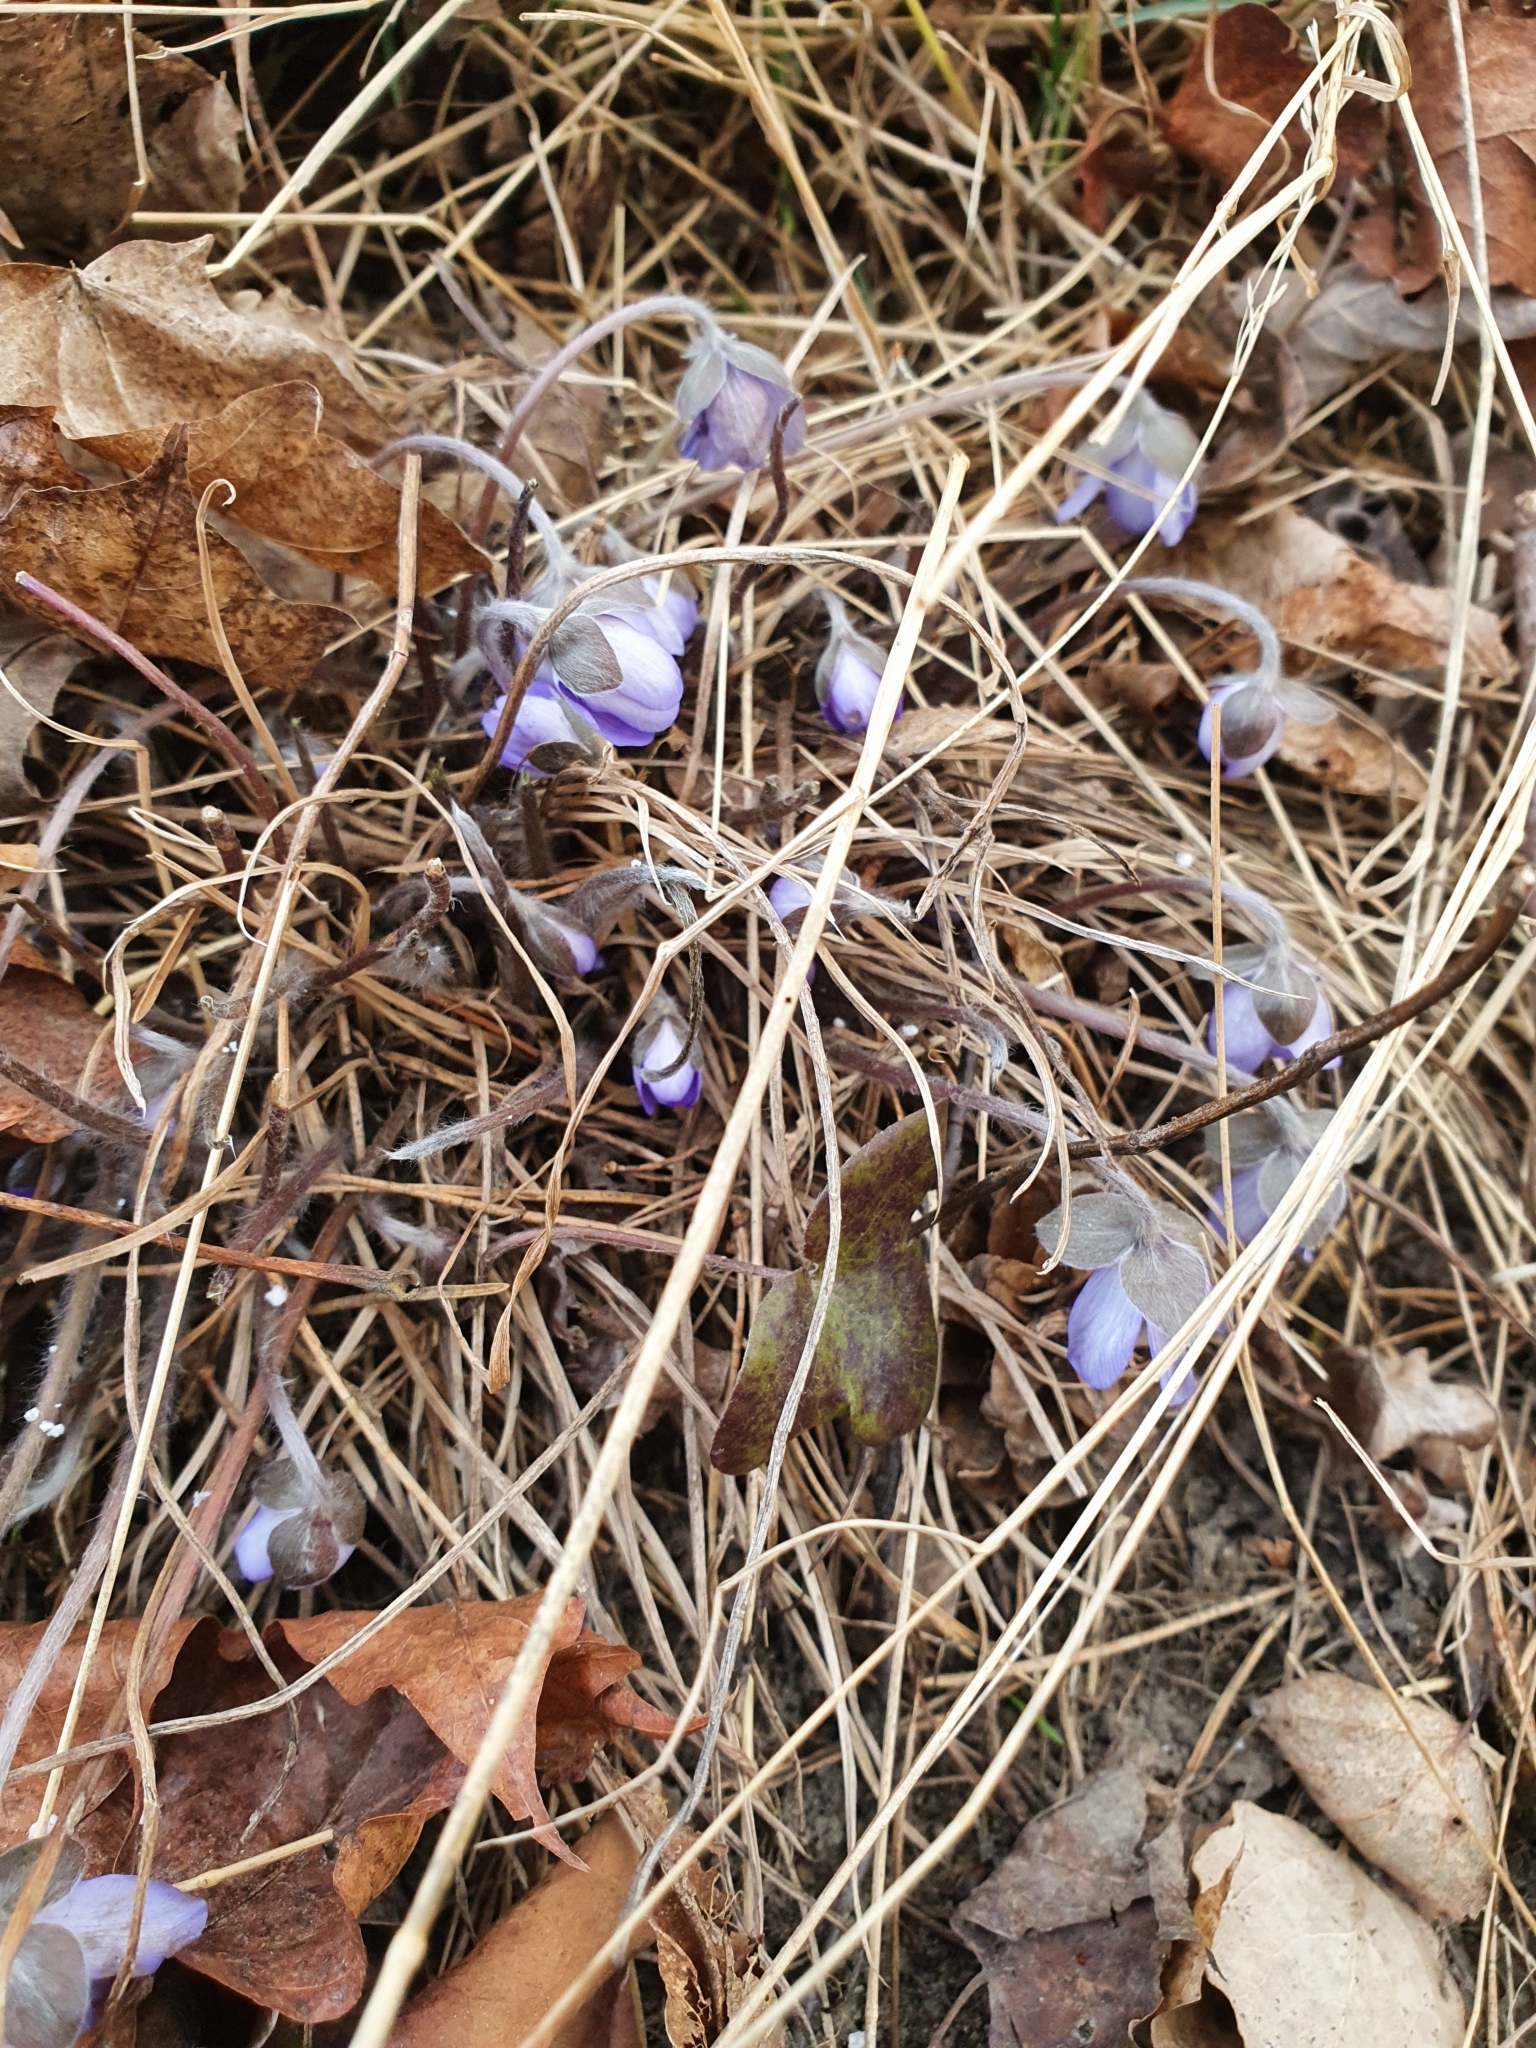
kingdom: Plantae
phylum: Tracheophyta
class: Magnoliopsida
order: Ranunculales
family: Ranunculaceae
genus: Hepatica
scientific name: Hepatica nobilis
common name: Liverleaf
